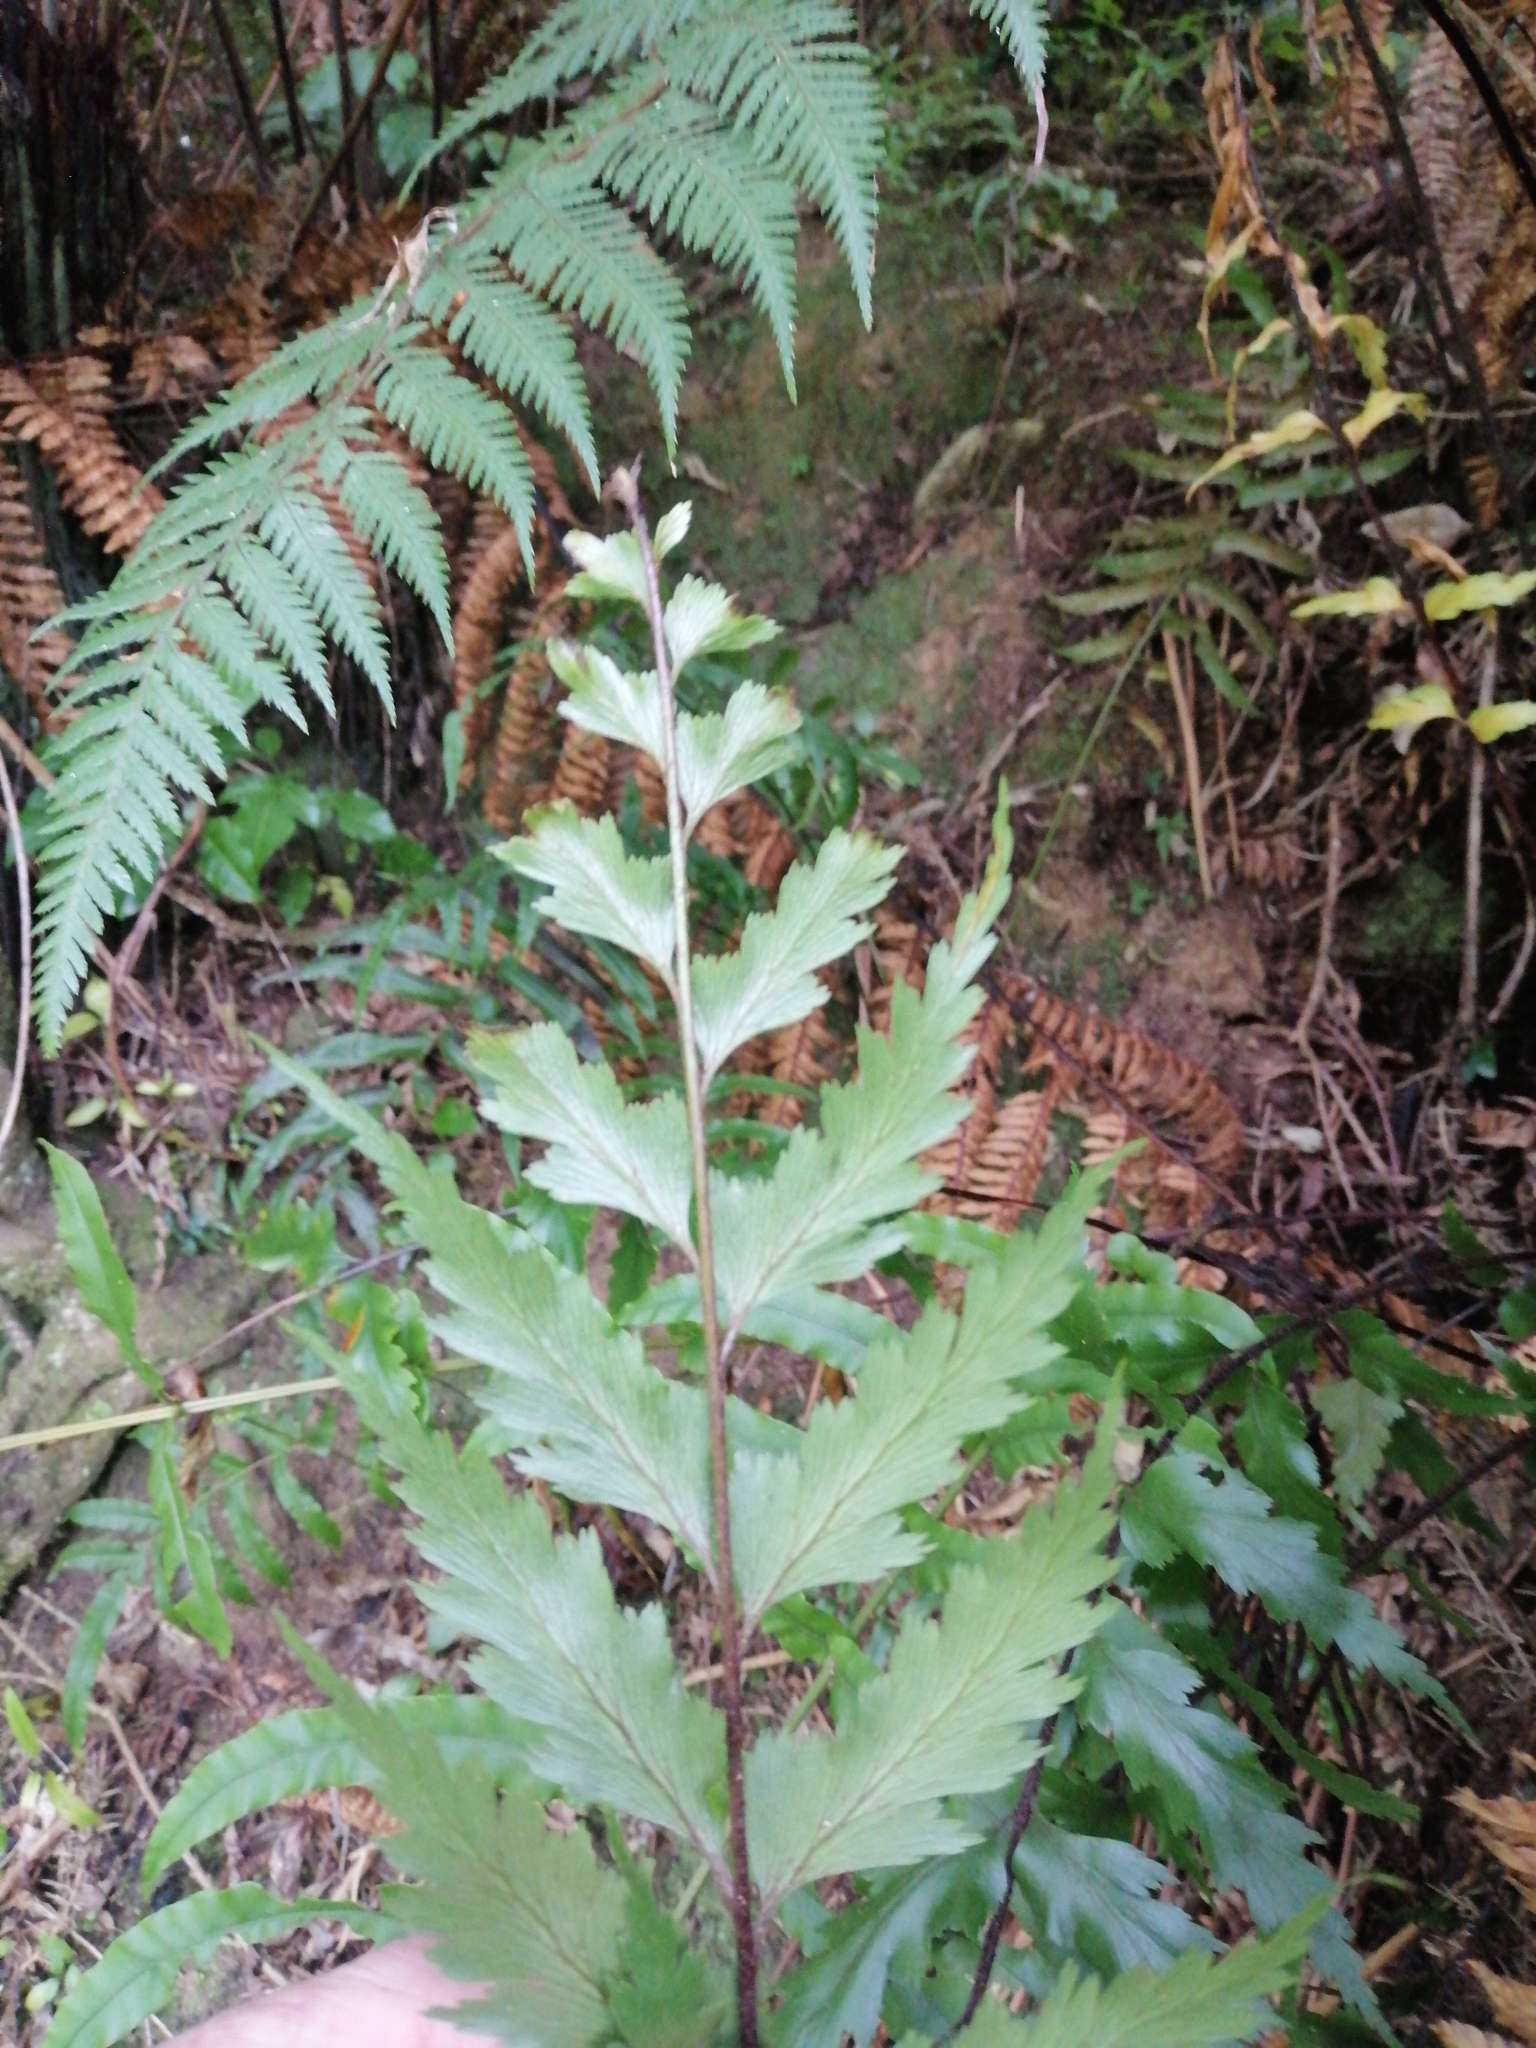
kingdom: Plantae
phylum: Tracheophyta
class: Polypodiopsida
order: Polypodiales
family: Aspleniaceae
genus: Asplenium
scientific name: Asplenium polyodon
